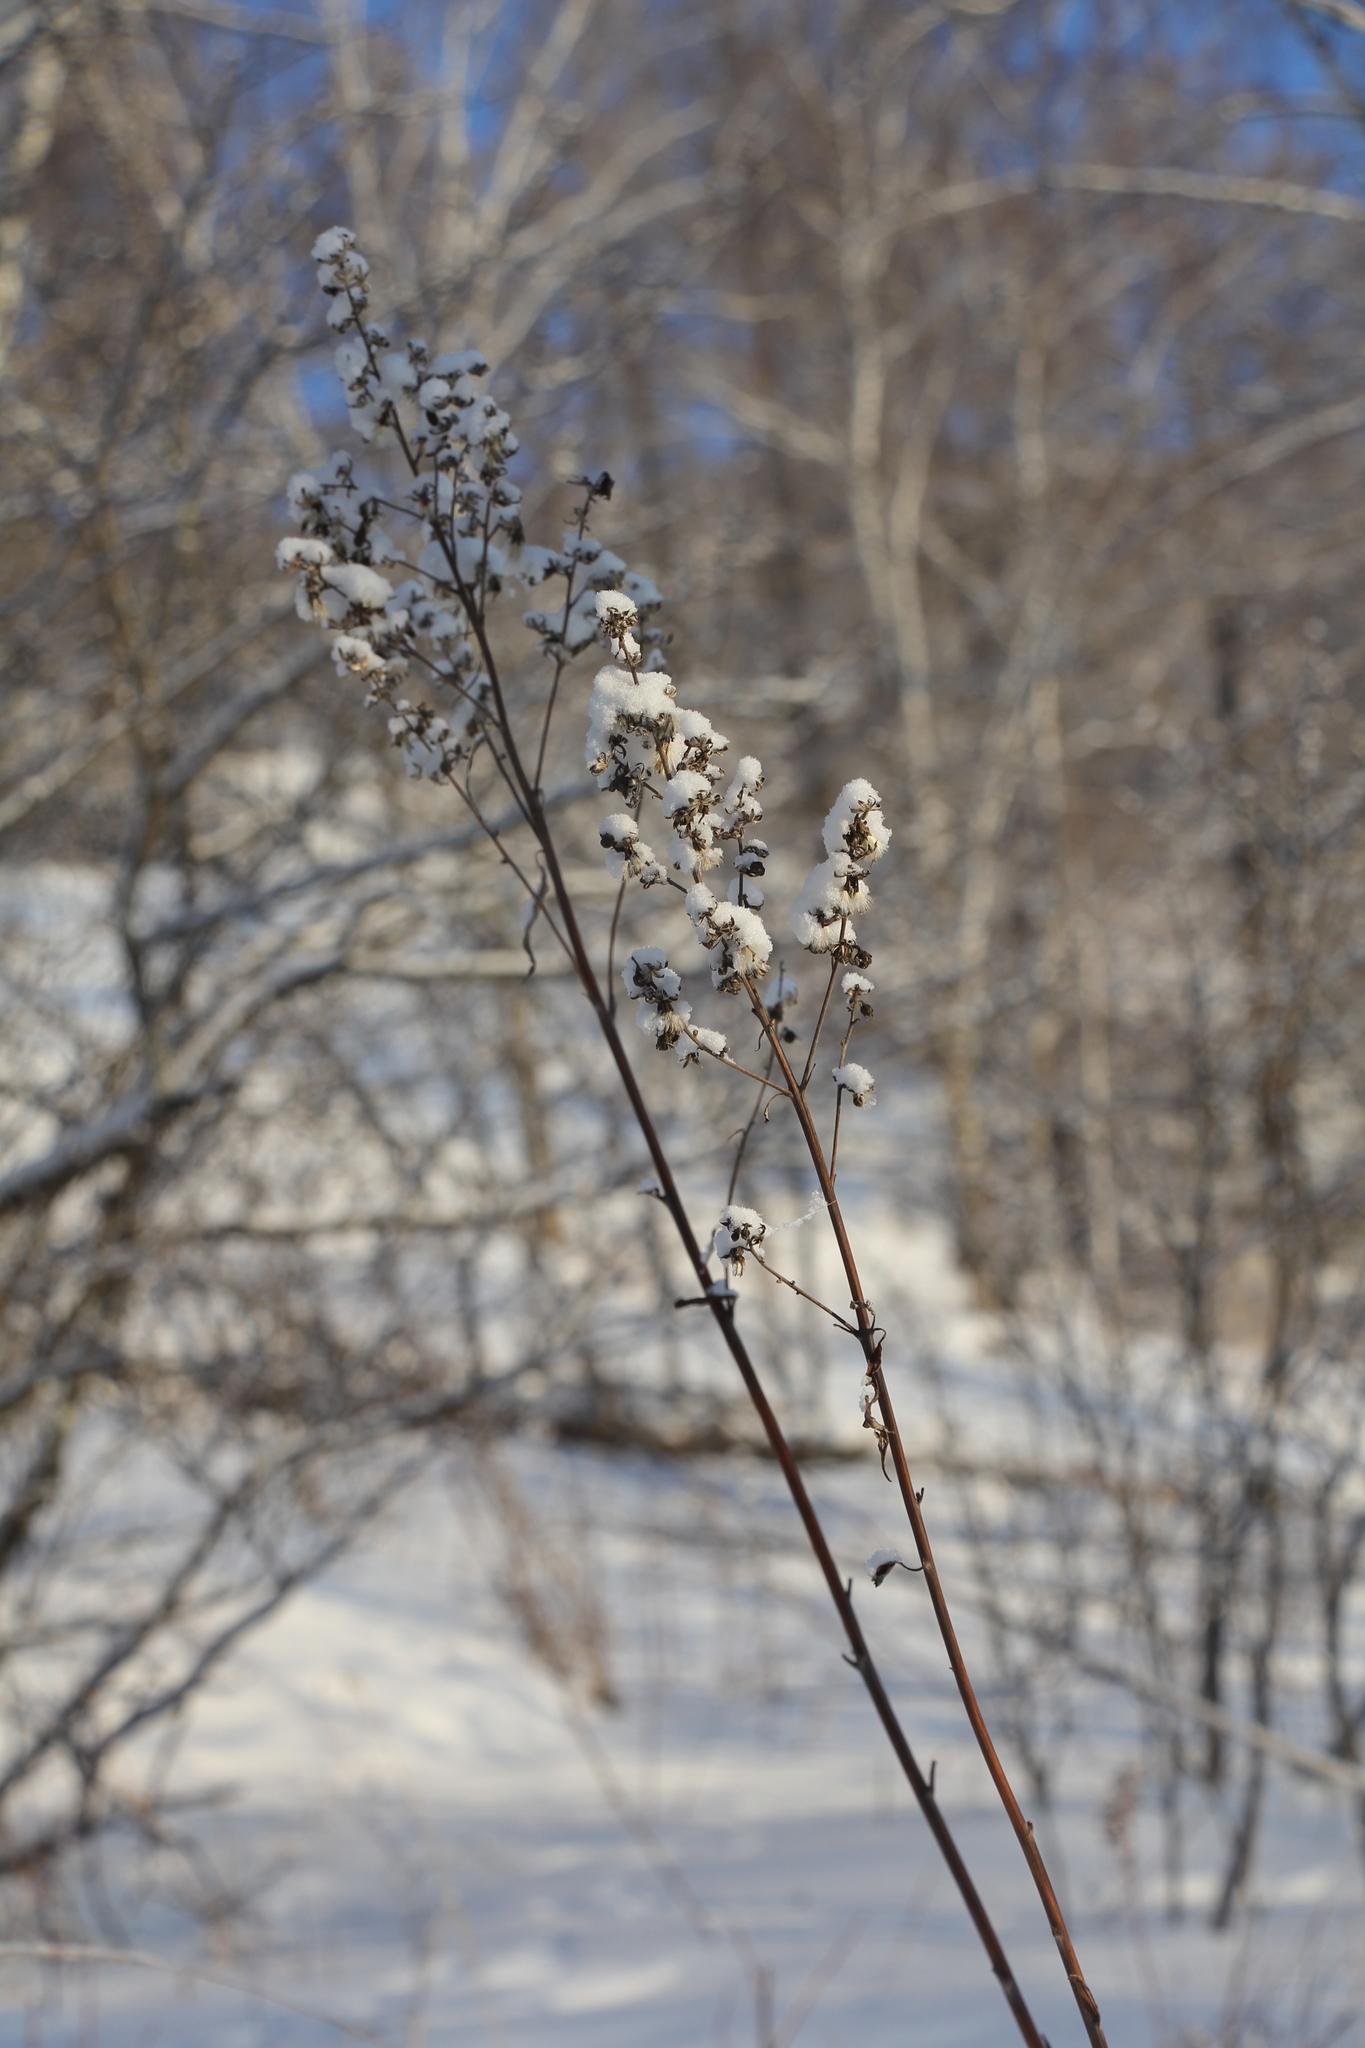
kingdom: Plantae
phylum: Tracheophyta
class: Magnoliopsida
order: Asterales
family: Asteraceae
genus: Parasenecio
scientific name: Parasenecio hastatus
